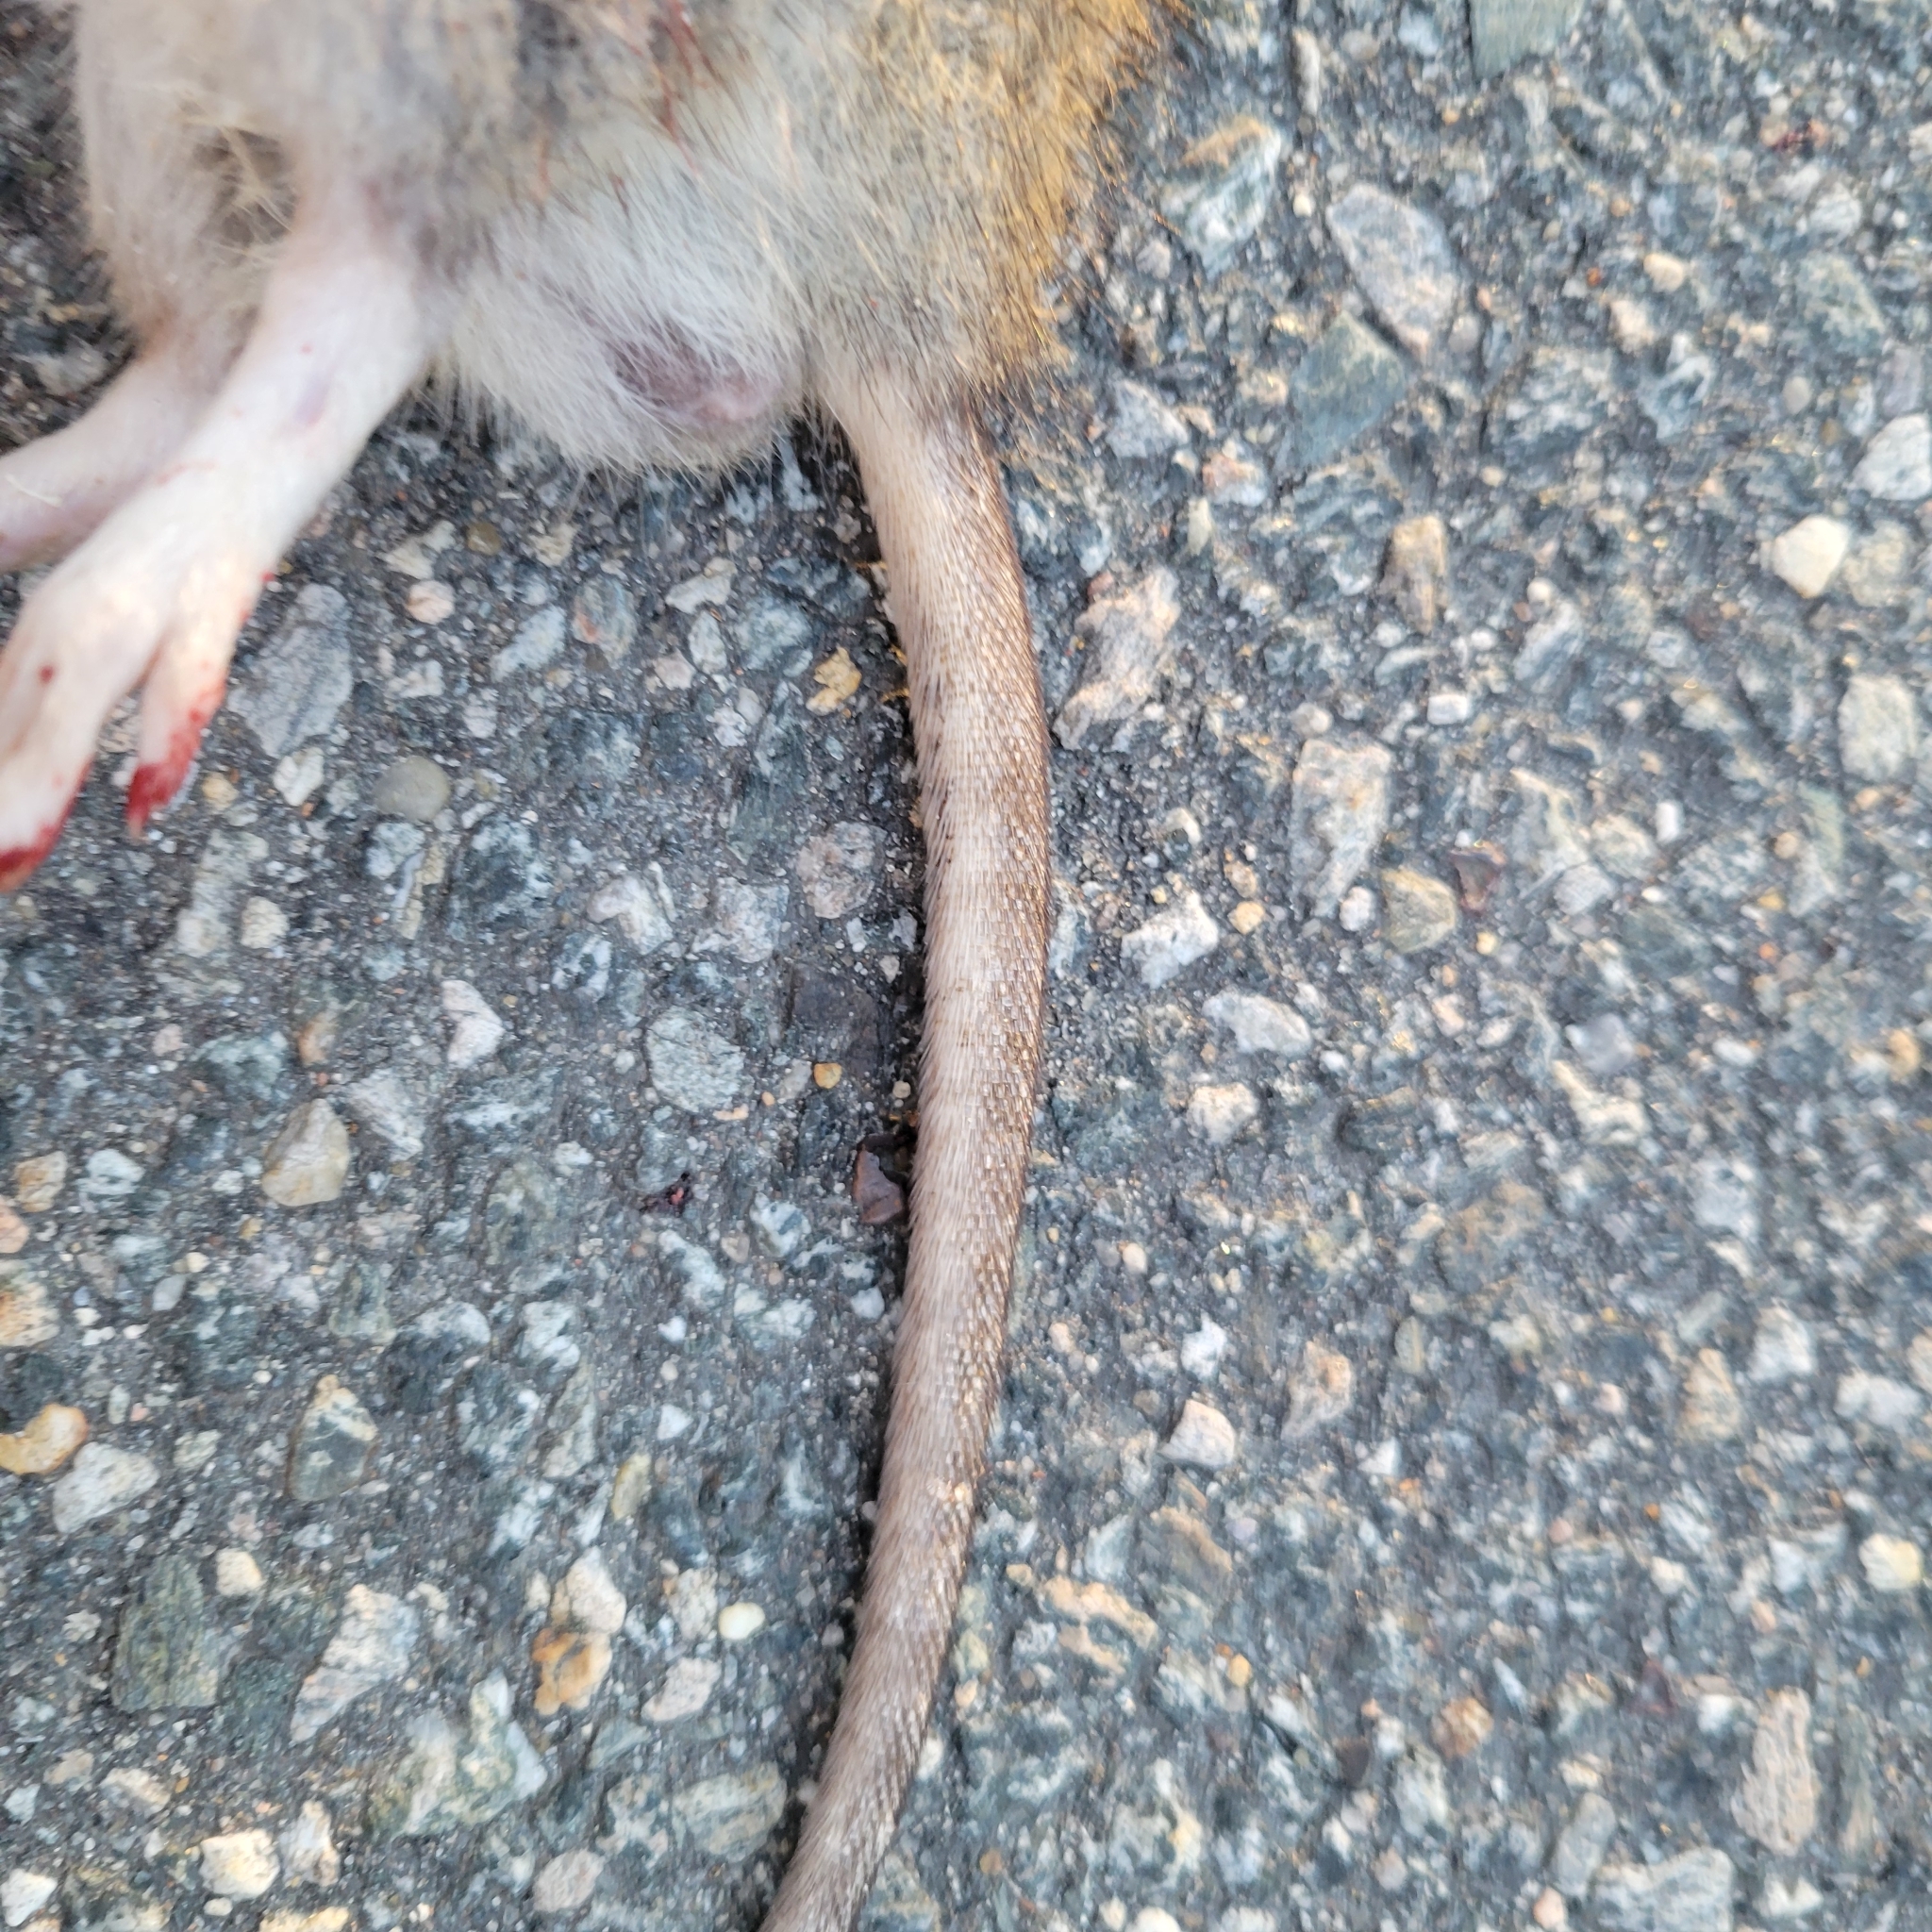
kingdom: Animalia
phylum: Chordata
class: Mammalia
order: Rodentia
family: Muridae
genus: Rattus
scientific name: Rattus norvegicus
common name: Brown rat
